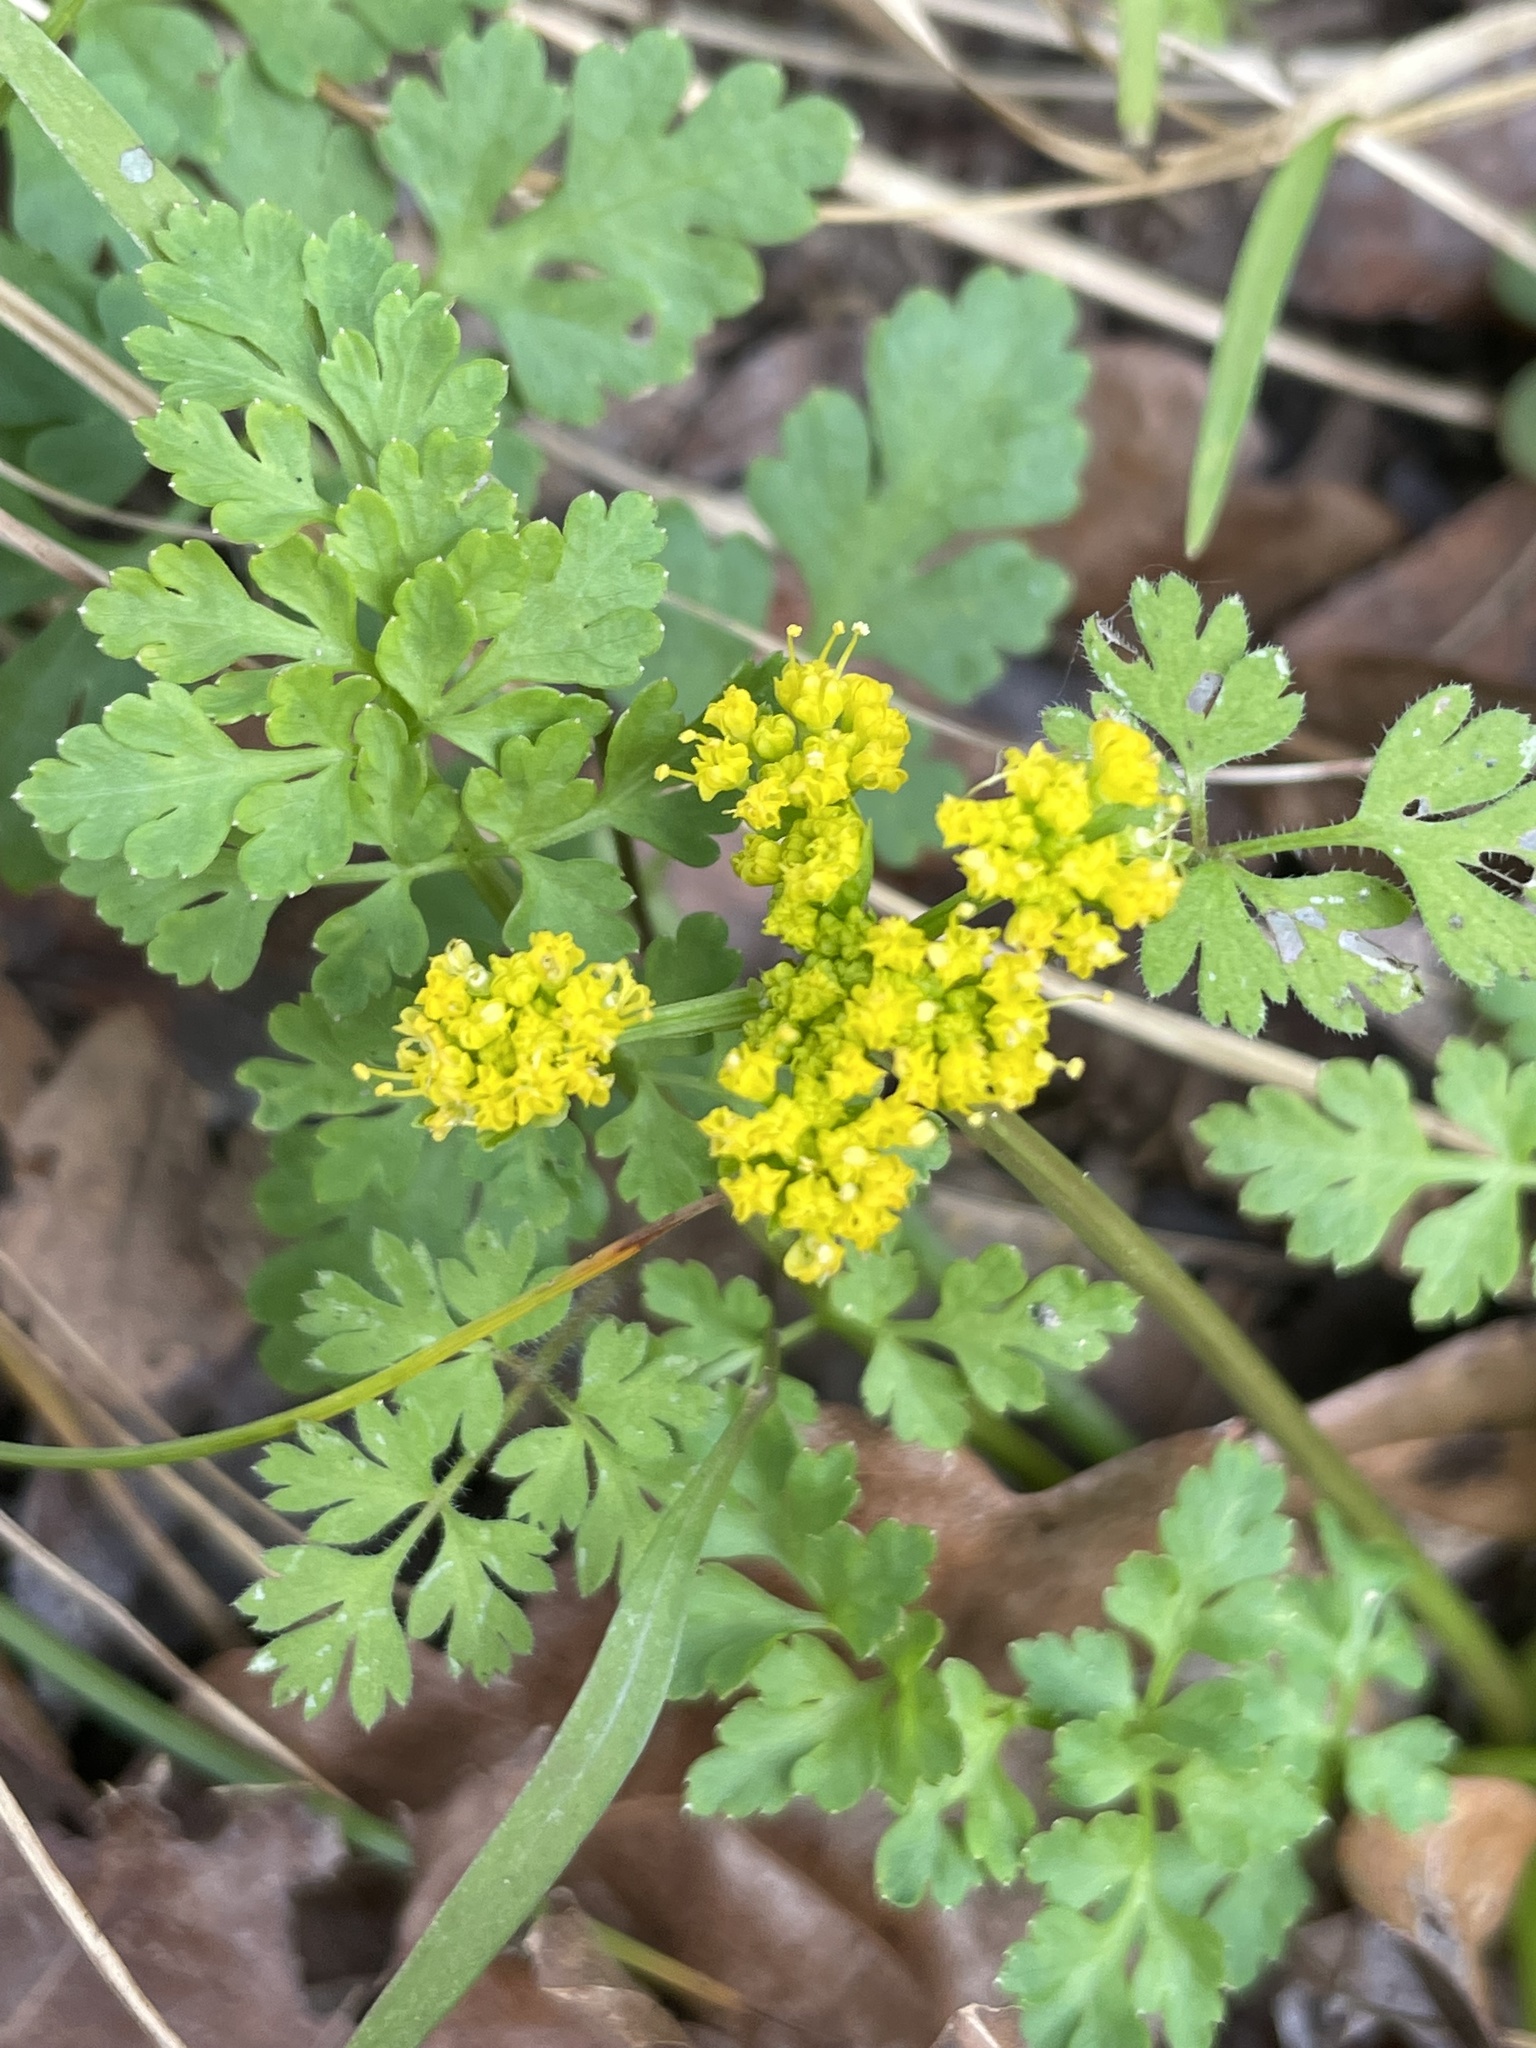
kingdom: Plantae
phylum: Tracheophyta
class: Magnoliopsida
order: Apiales
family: Apiaceae
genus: Tauschia
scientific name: Tauschia texana
